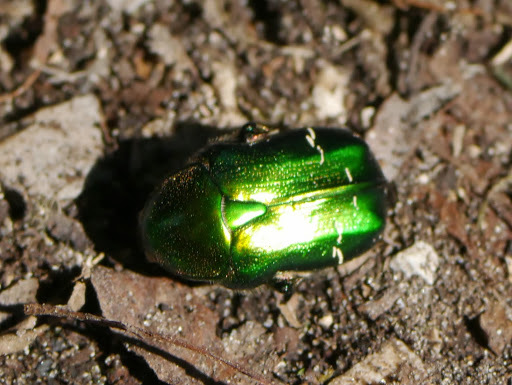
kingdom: Animalia
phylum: Arthropoda
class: Insecta
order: Coleoptera
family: Scarabaeidae
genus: Cetonia
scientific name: Cetonia aurata
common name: Rose chafer
